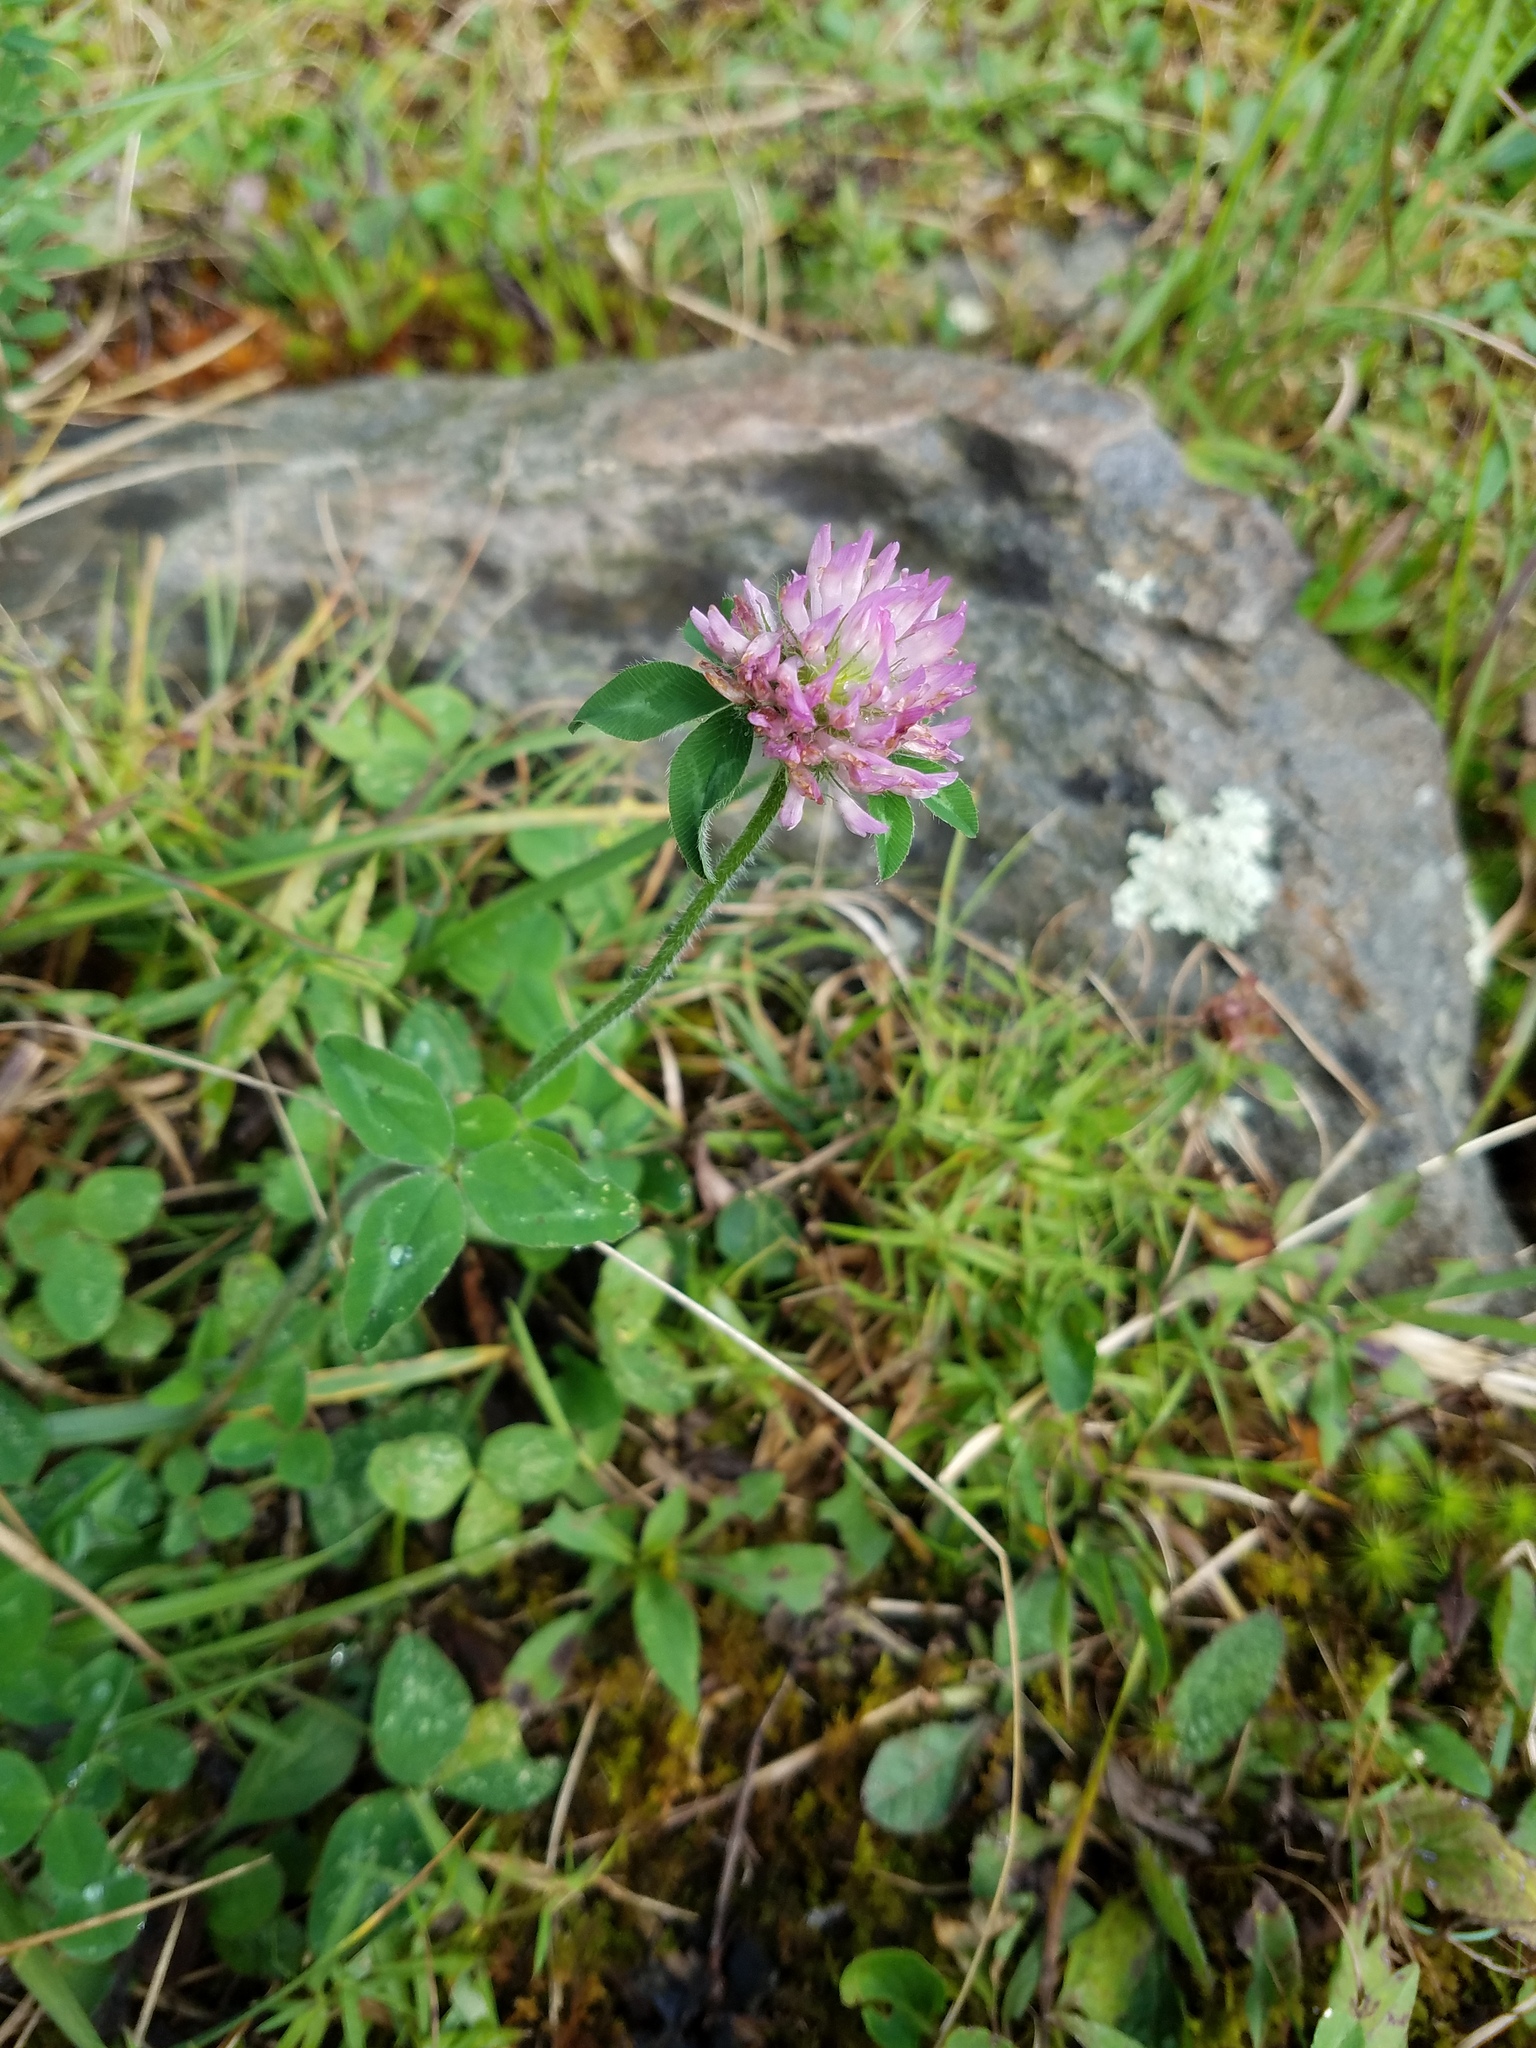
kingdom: Plantae
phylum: Tracheophyta
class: Magnoliopsida
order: Fabales
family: Fabaceae
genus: Trifolium
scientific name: Trifolium pratense
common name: Red clover
